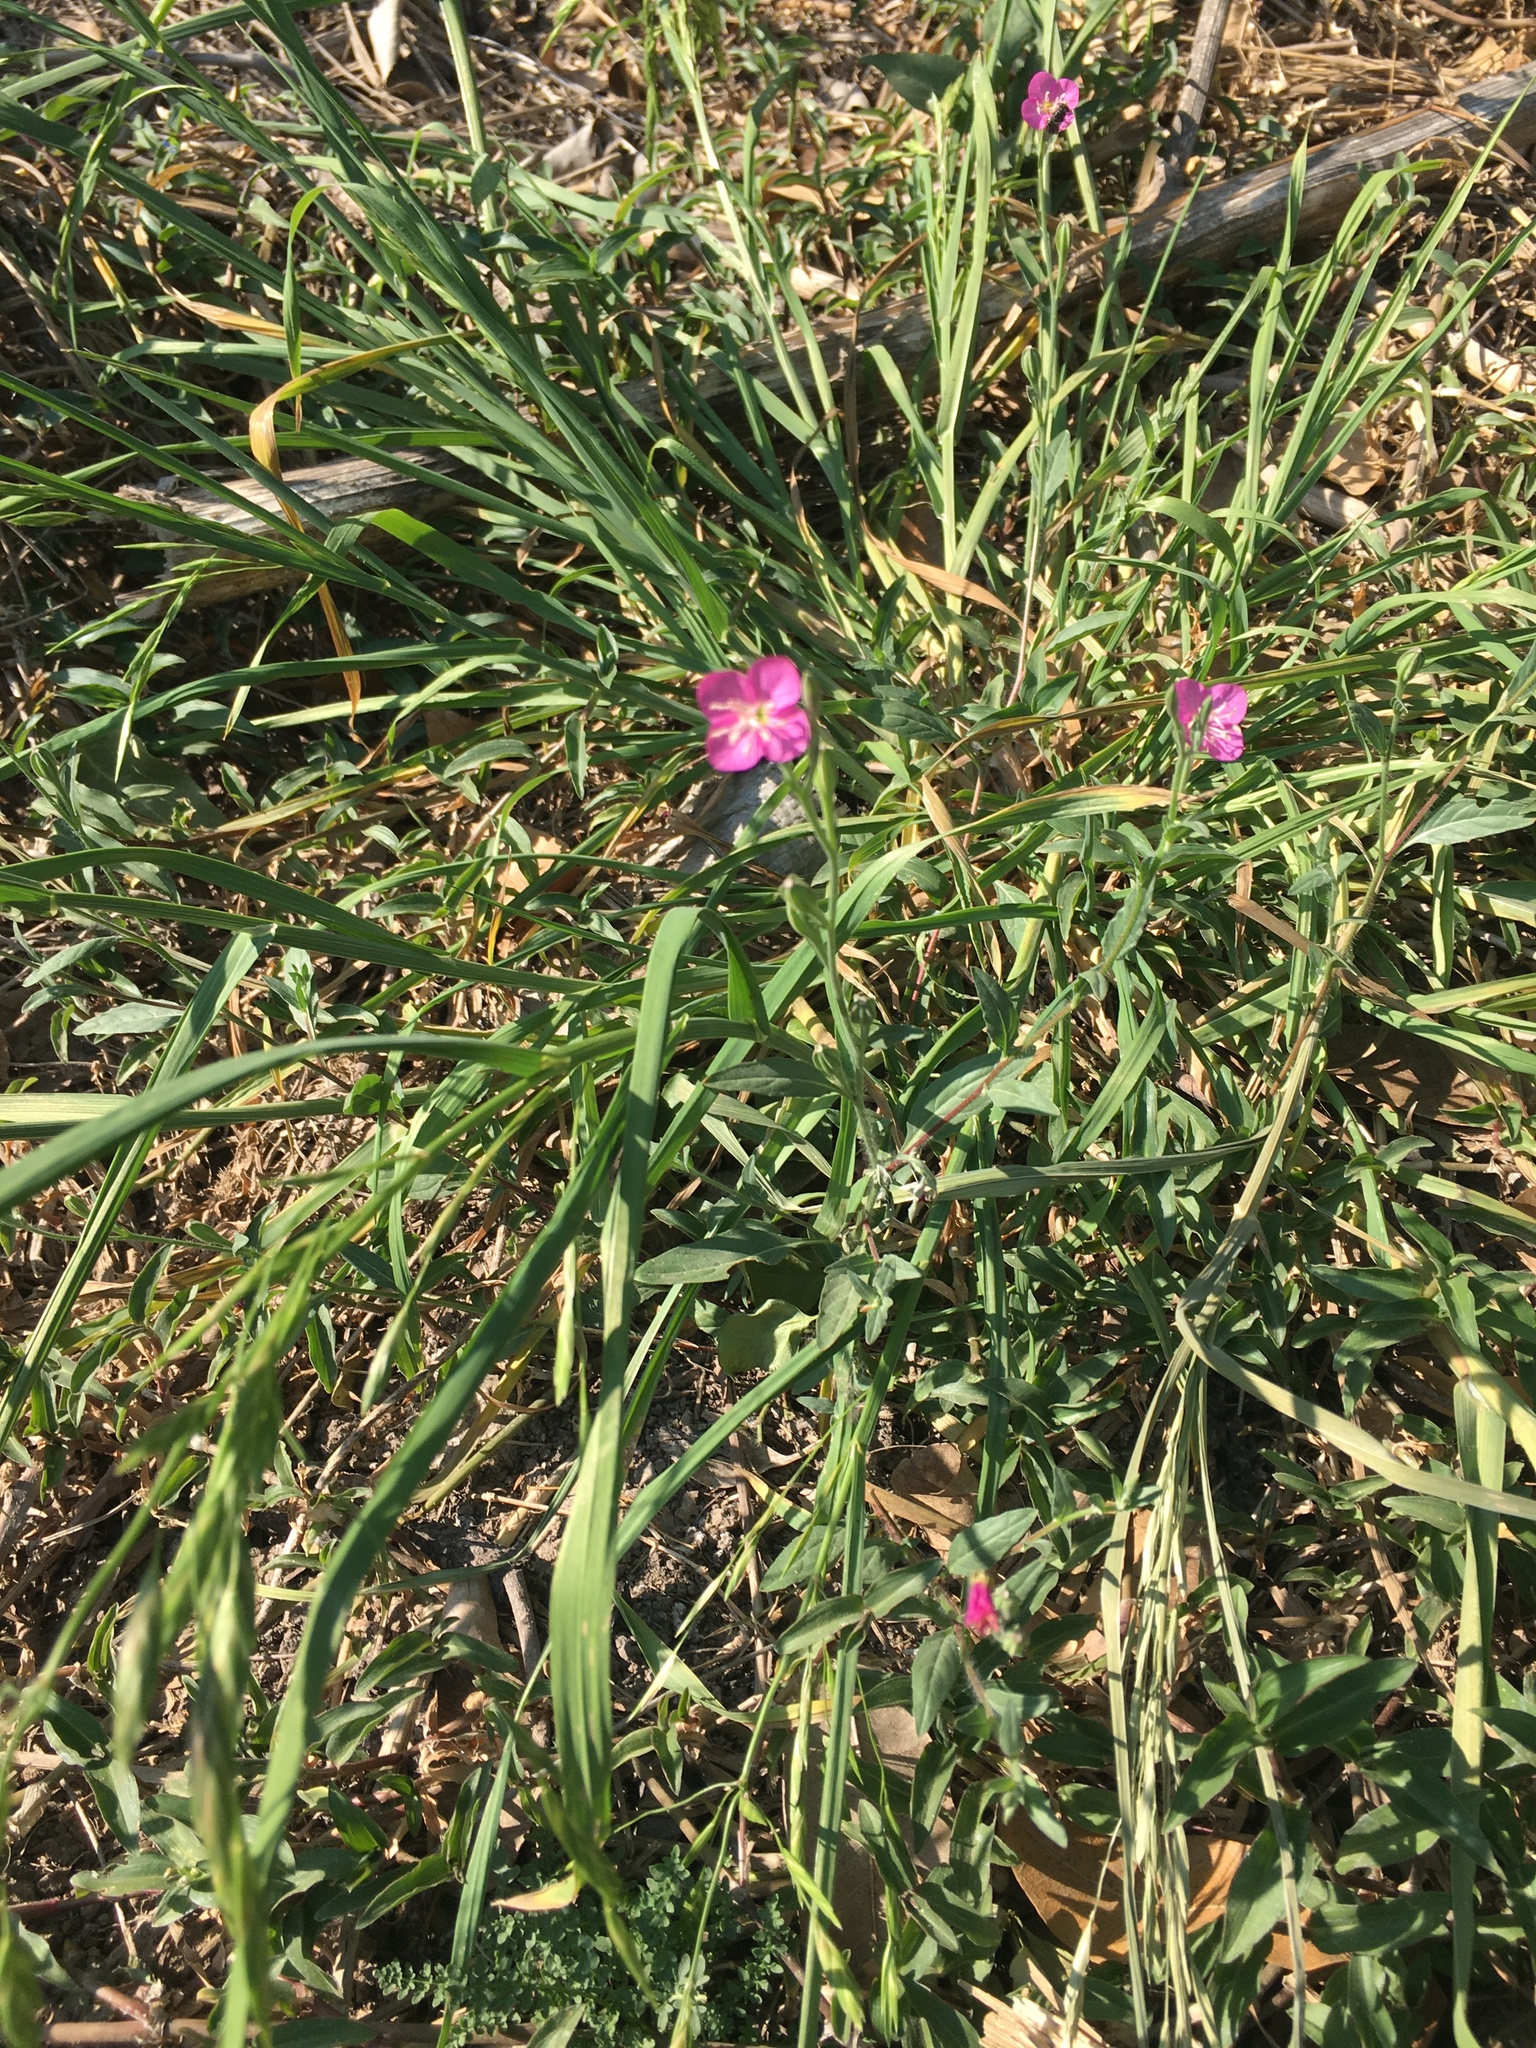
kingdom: Plantae
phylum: Tracheophyta
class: Magnoliopsida
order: Myrtales
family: Onagraceae
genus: Oenothera
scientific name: Oenothera rosea
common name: Rosy evening-primrose
